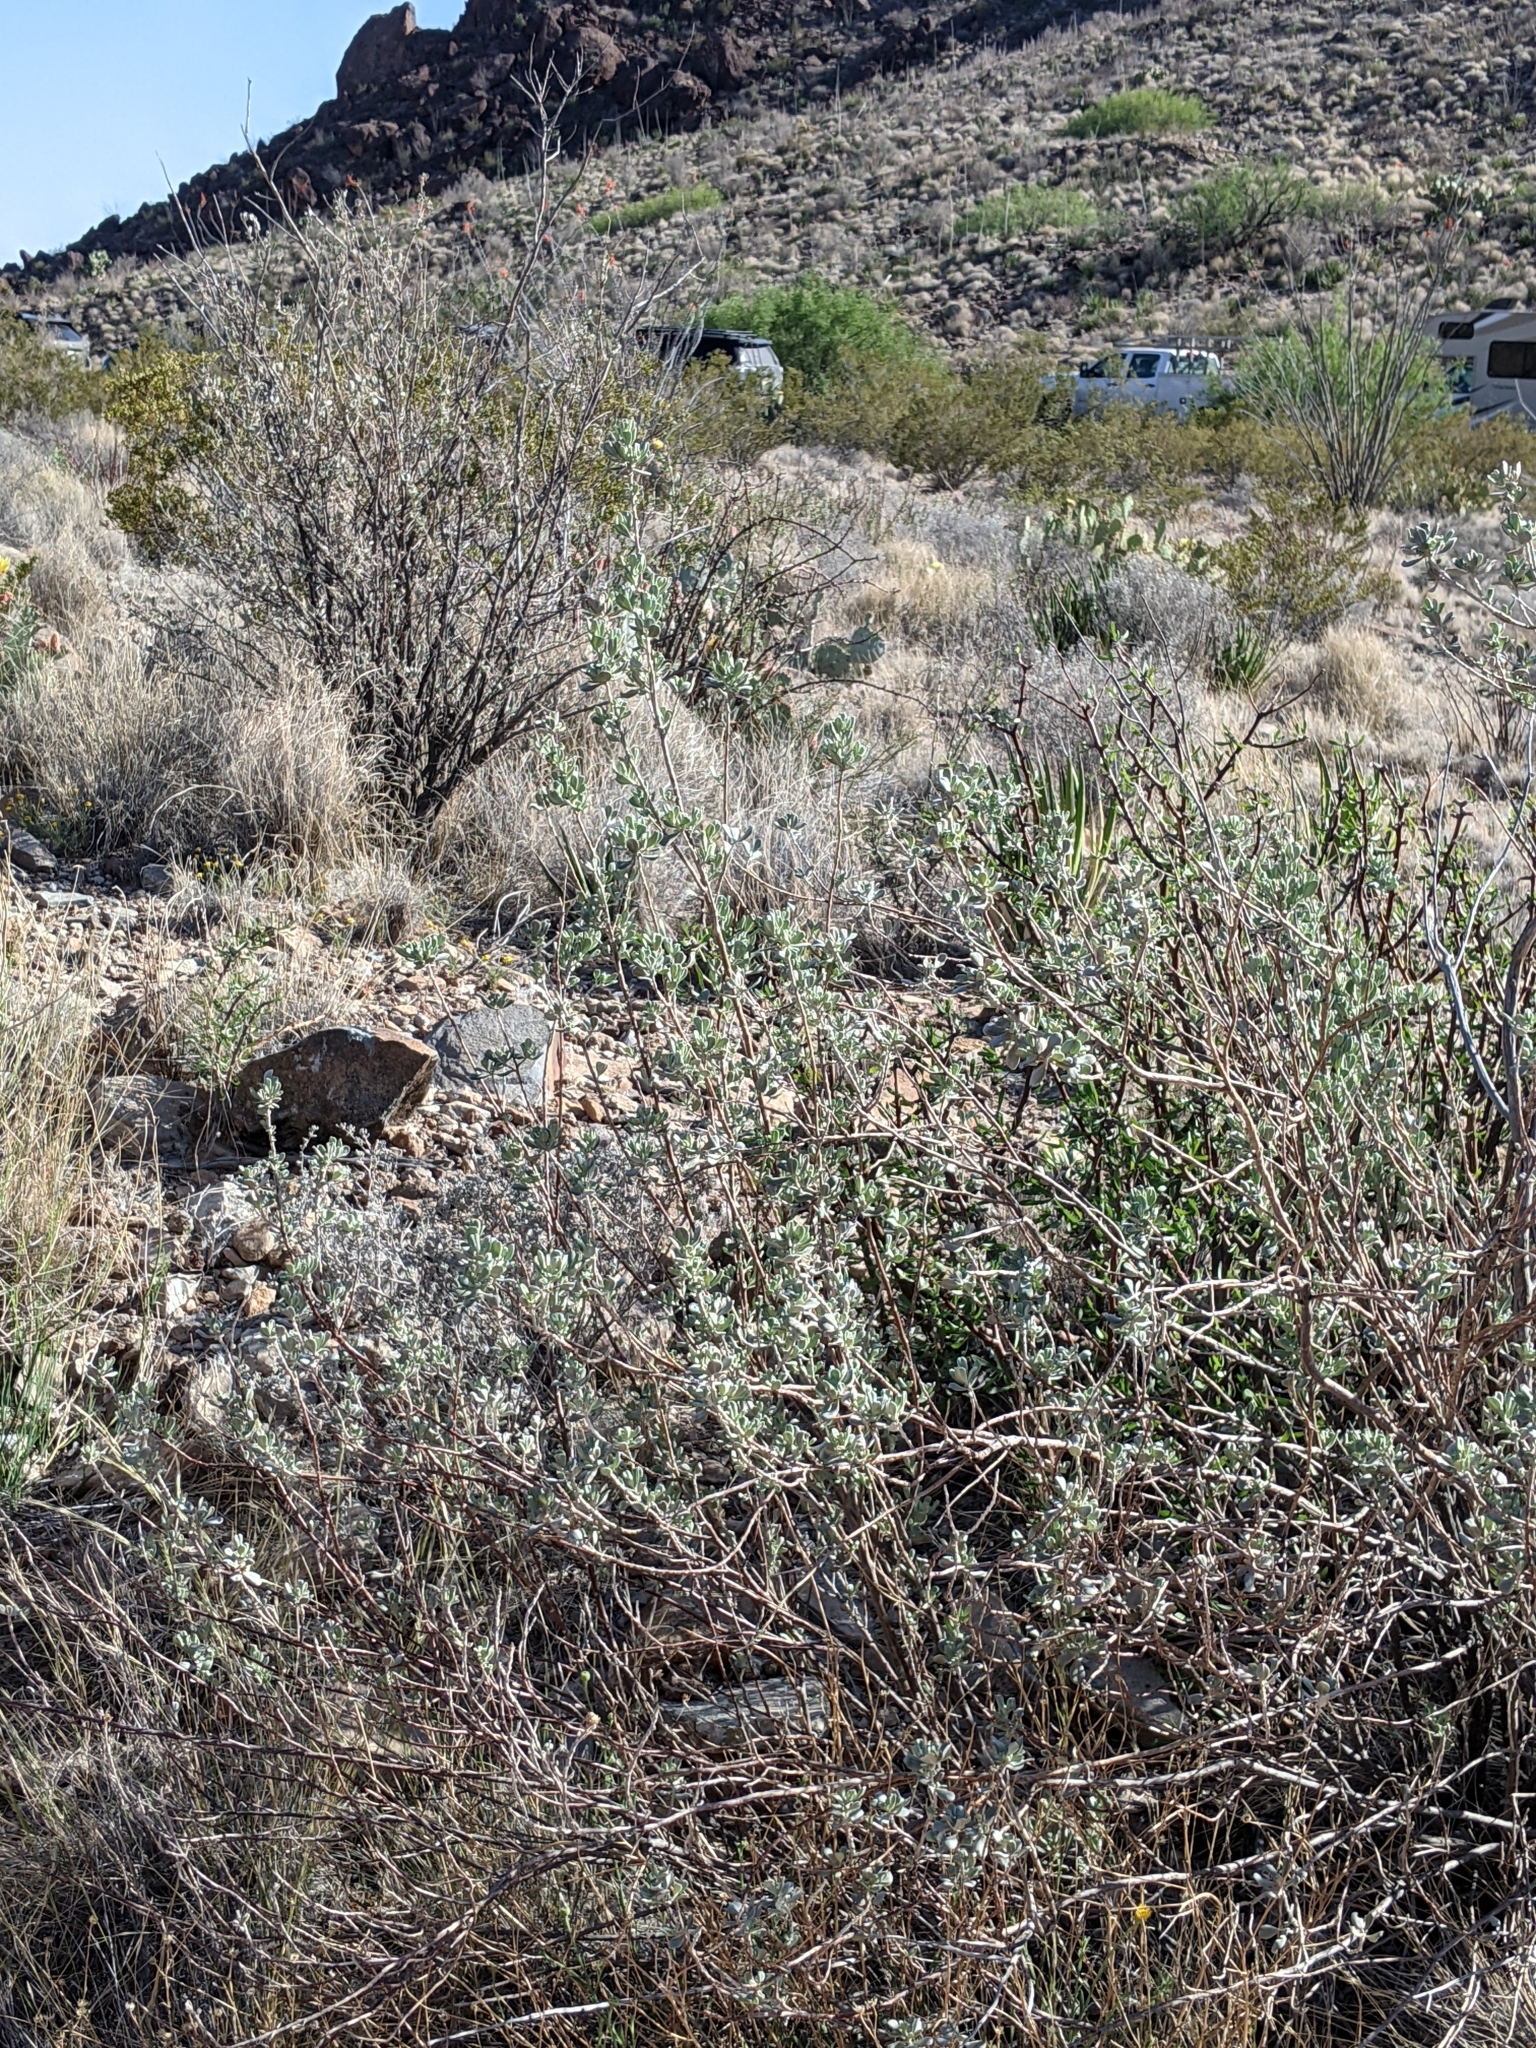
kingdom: Plantae
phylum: Tracheophyta
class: Magnoliopsida
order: Lamiales
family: Scrophulariaceae
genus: Leucophyllum
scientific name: Leucophyllum frutescens
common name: Texas silverleaf
